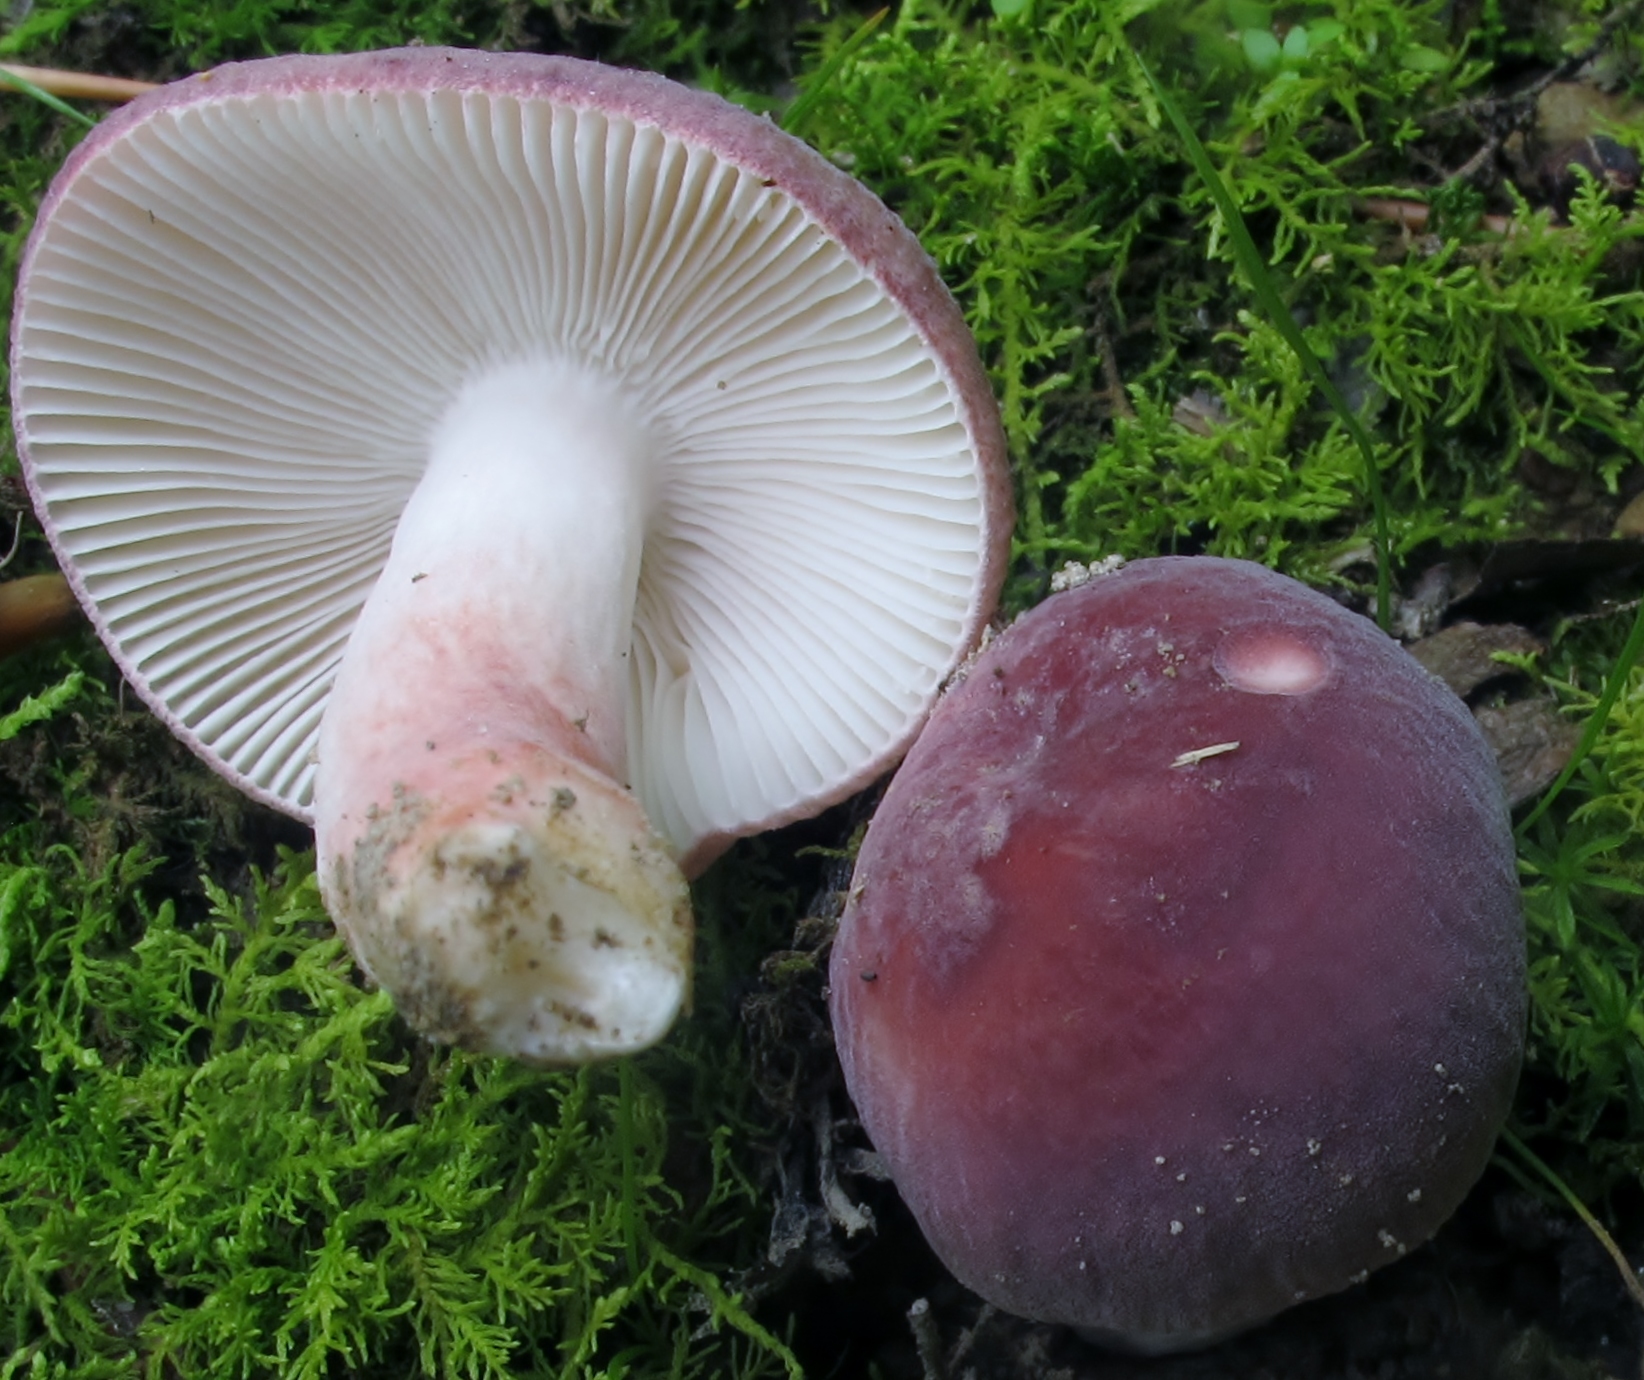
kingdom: Fungi
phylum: Basidiomycota
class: Agaricomycetes
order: Russulales
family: Russulaceae
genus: Russula
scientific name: Russula mariae
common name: Purple-bloom russula
